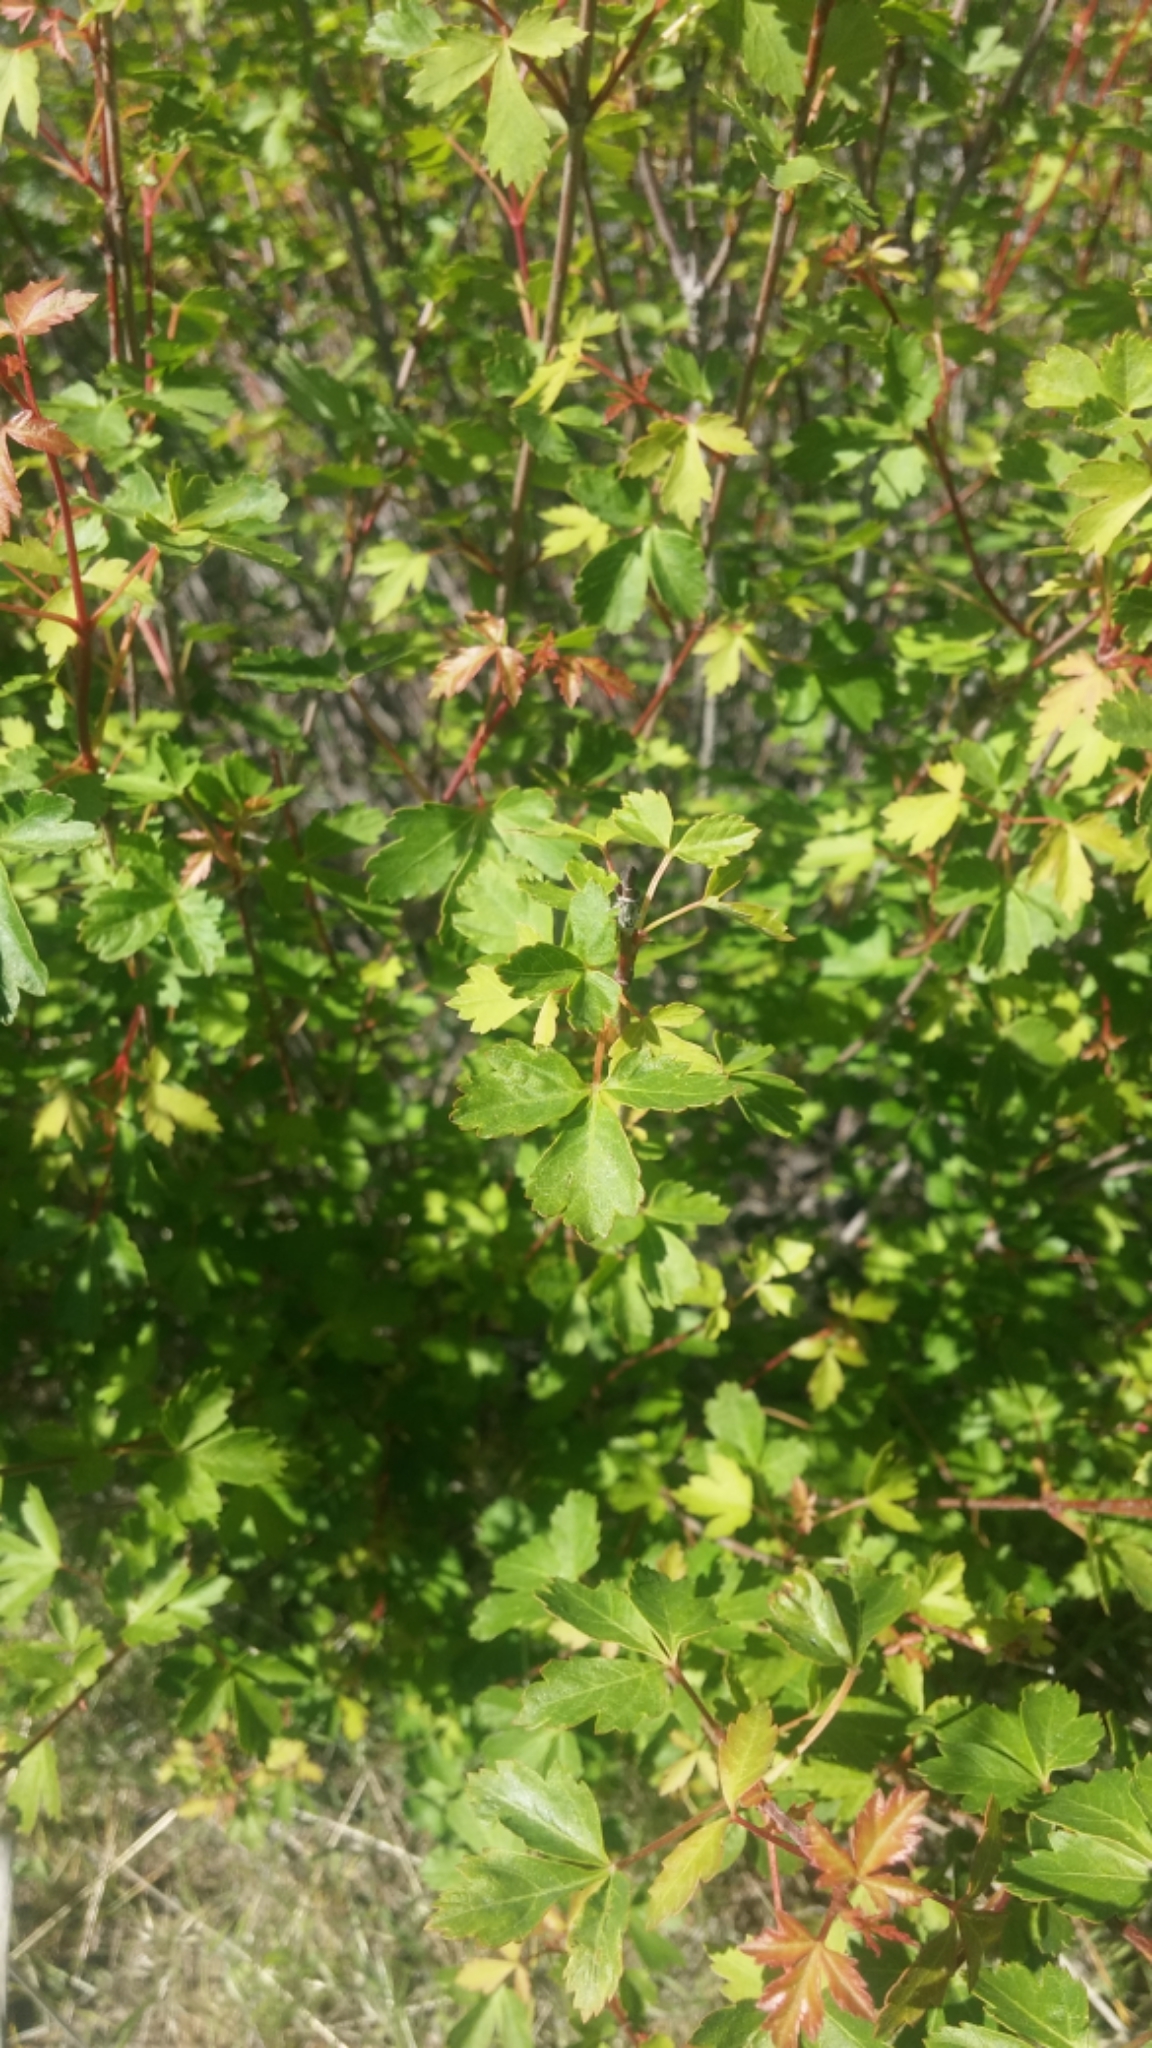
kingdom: Plantae
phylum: Tracheophyta
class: Magnoliopsida
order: Sapindales
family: Sapindaceae
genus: Acer
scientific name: Acer glabrum
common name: Rocky mountain maple
